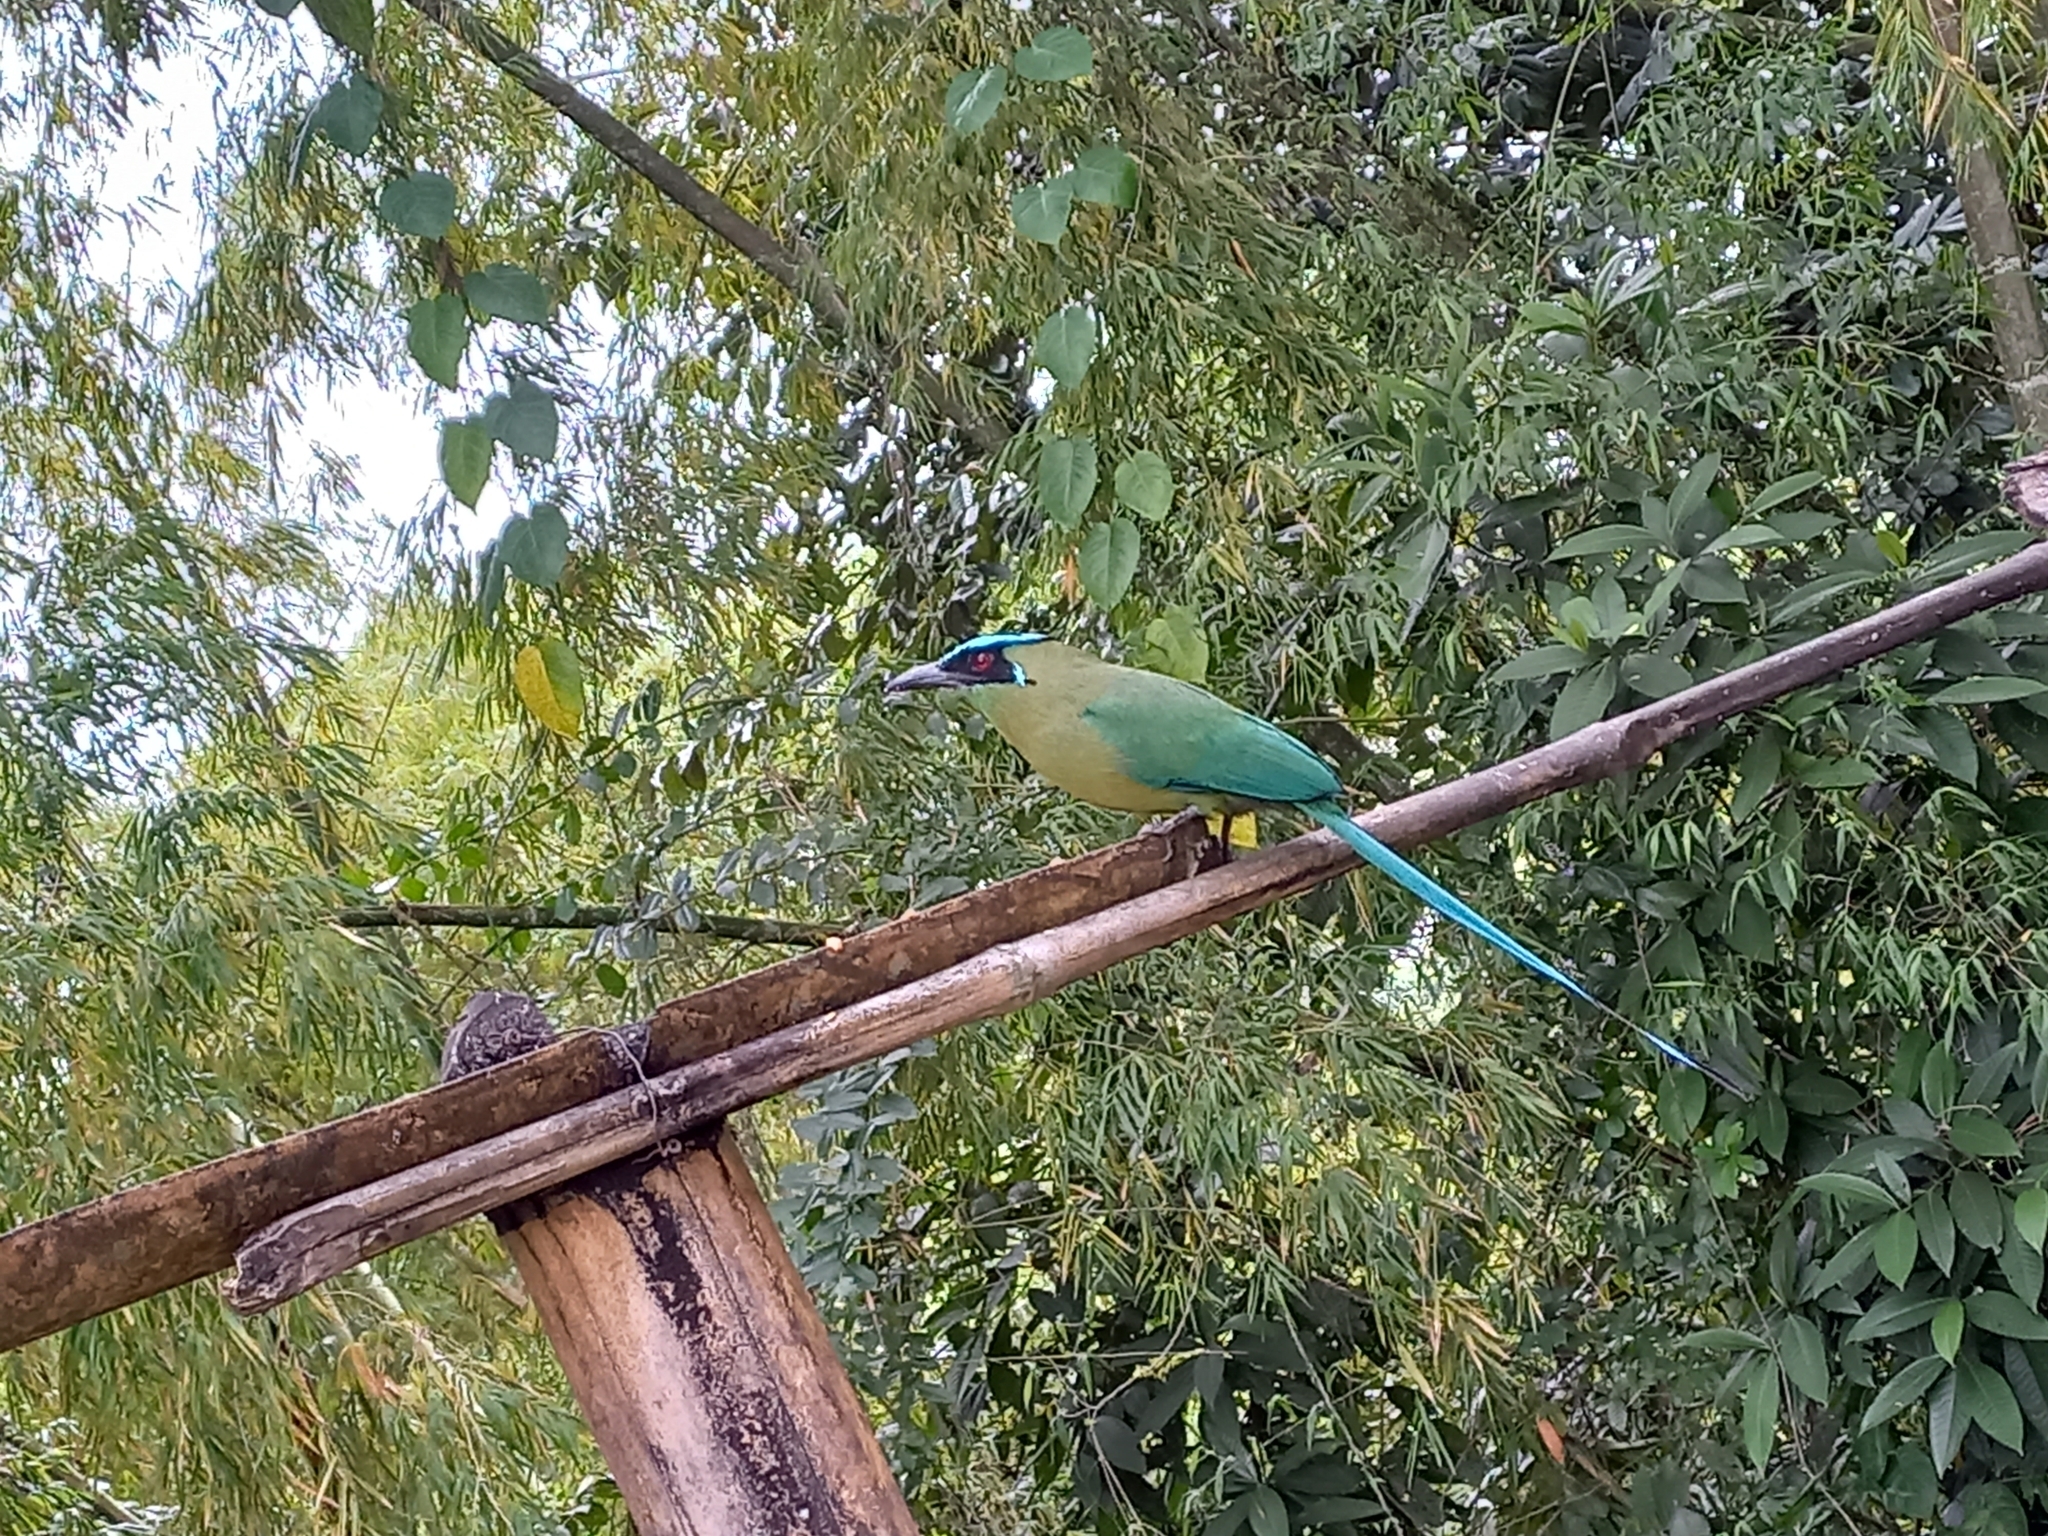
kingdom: Animalia
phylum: Chordata
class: Aves
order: Coraciiformes
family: Momotidae
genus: Momotus
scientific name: Momotus aequatorialis
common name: Andean motmot
